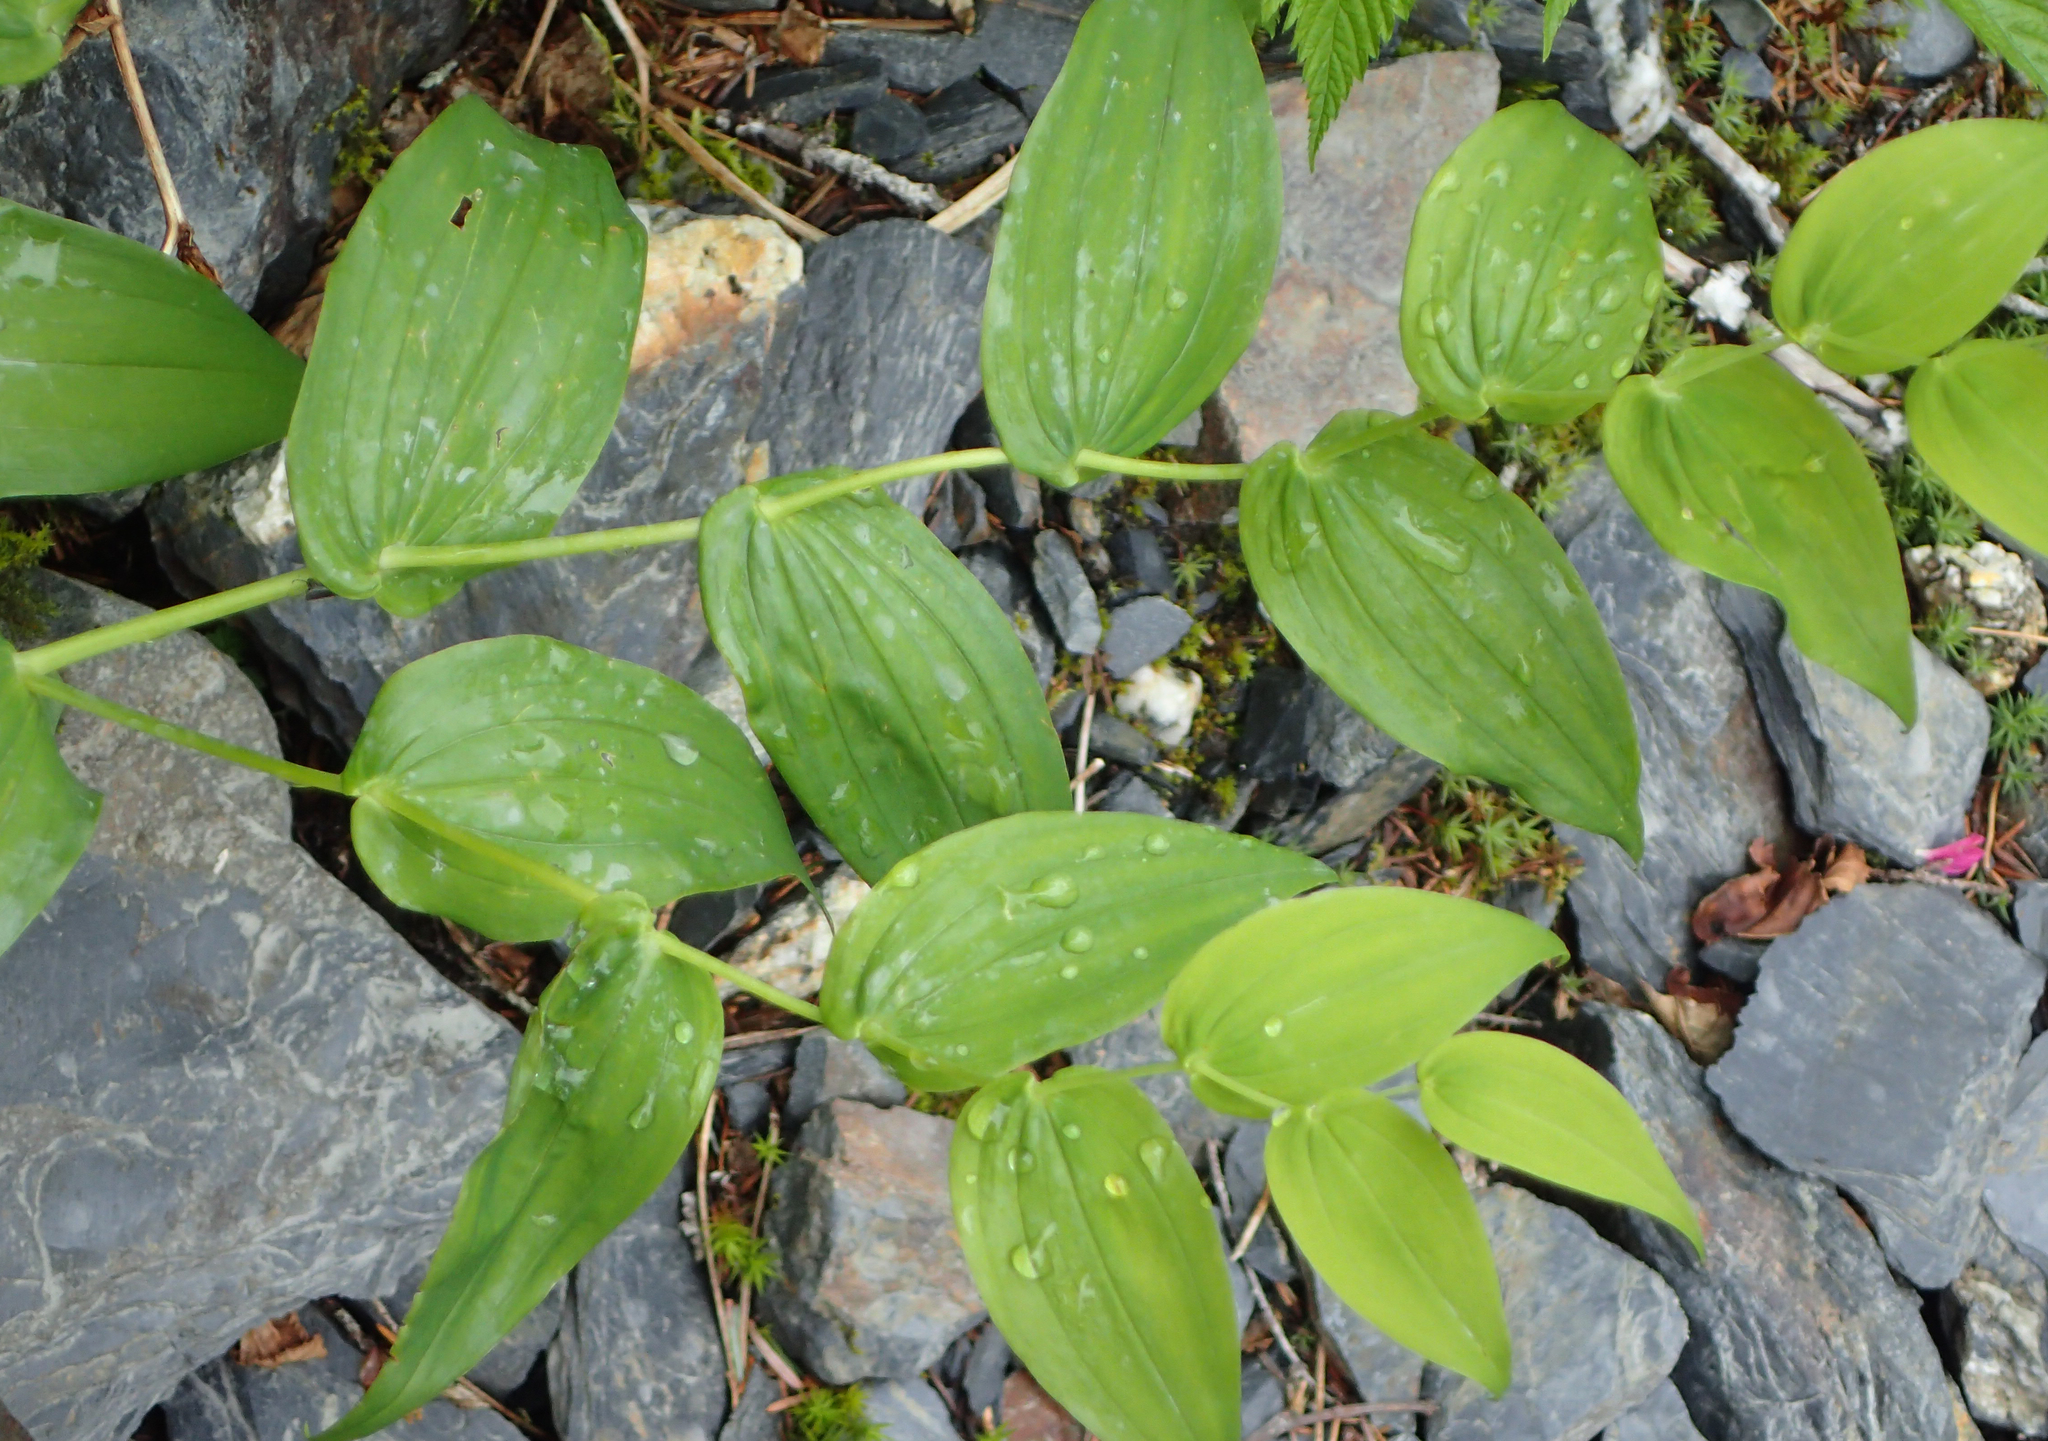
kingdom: Plantae
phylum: Tracheophyta
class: Liliopsida
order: Liliales
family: Liliaceae
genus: Streptopus
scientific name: Streptopus amplexifolius
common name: Clasp twisted stalk
